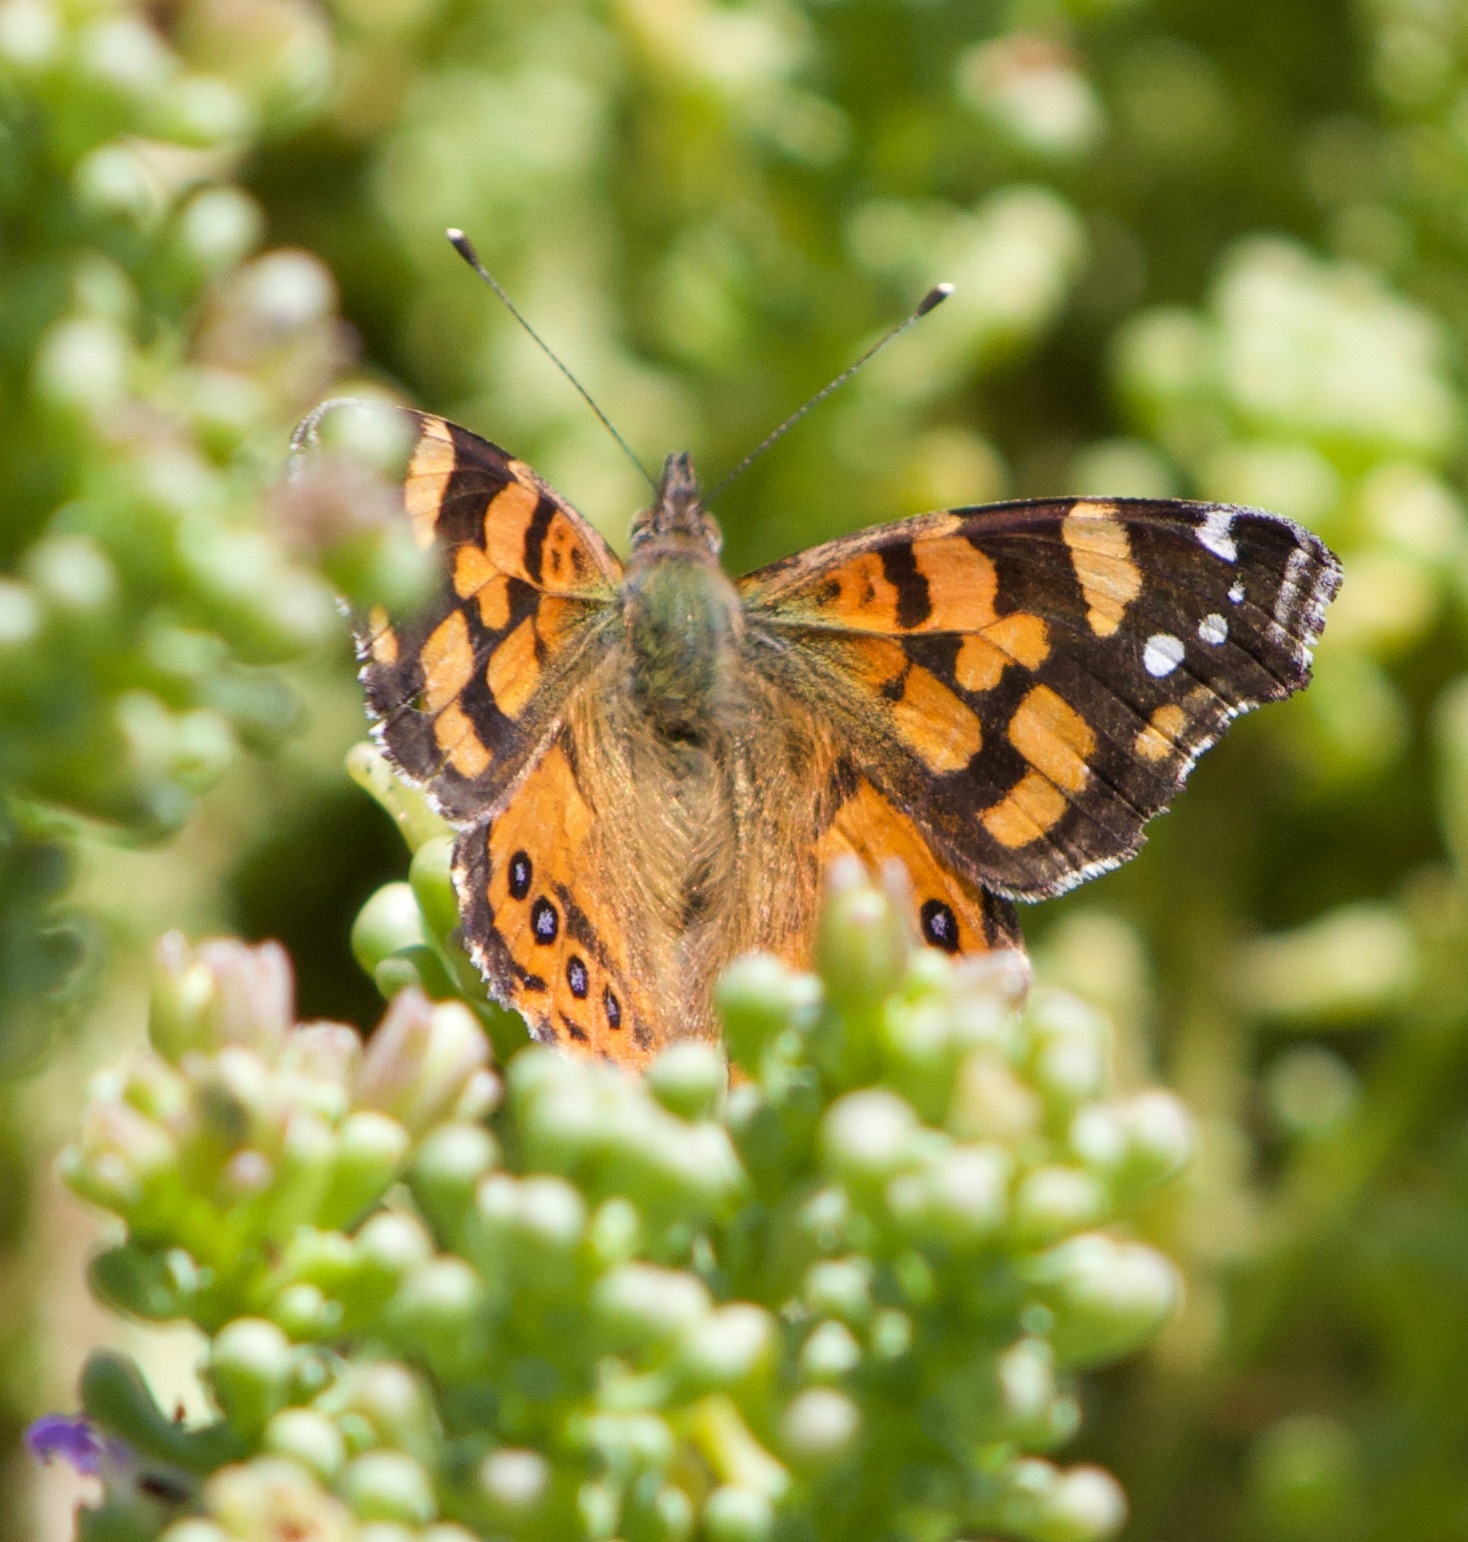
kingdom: Animalia
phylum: Arthropoda
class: Insecta
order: Lepidoptera
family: Nymphalidae
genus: Vanessa
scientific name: Vanessa carye
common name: Subtropical lady
